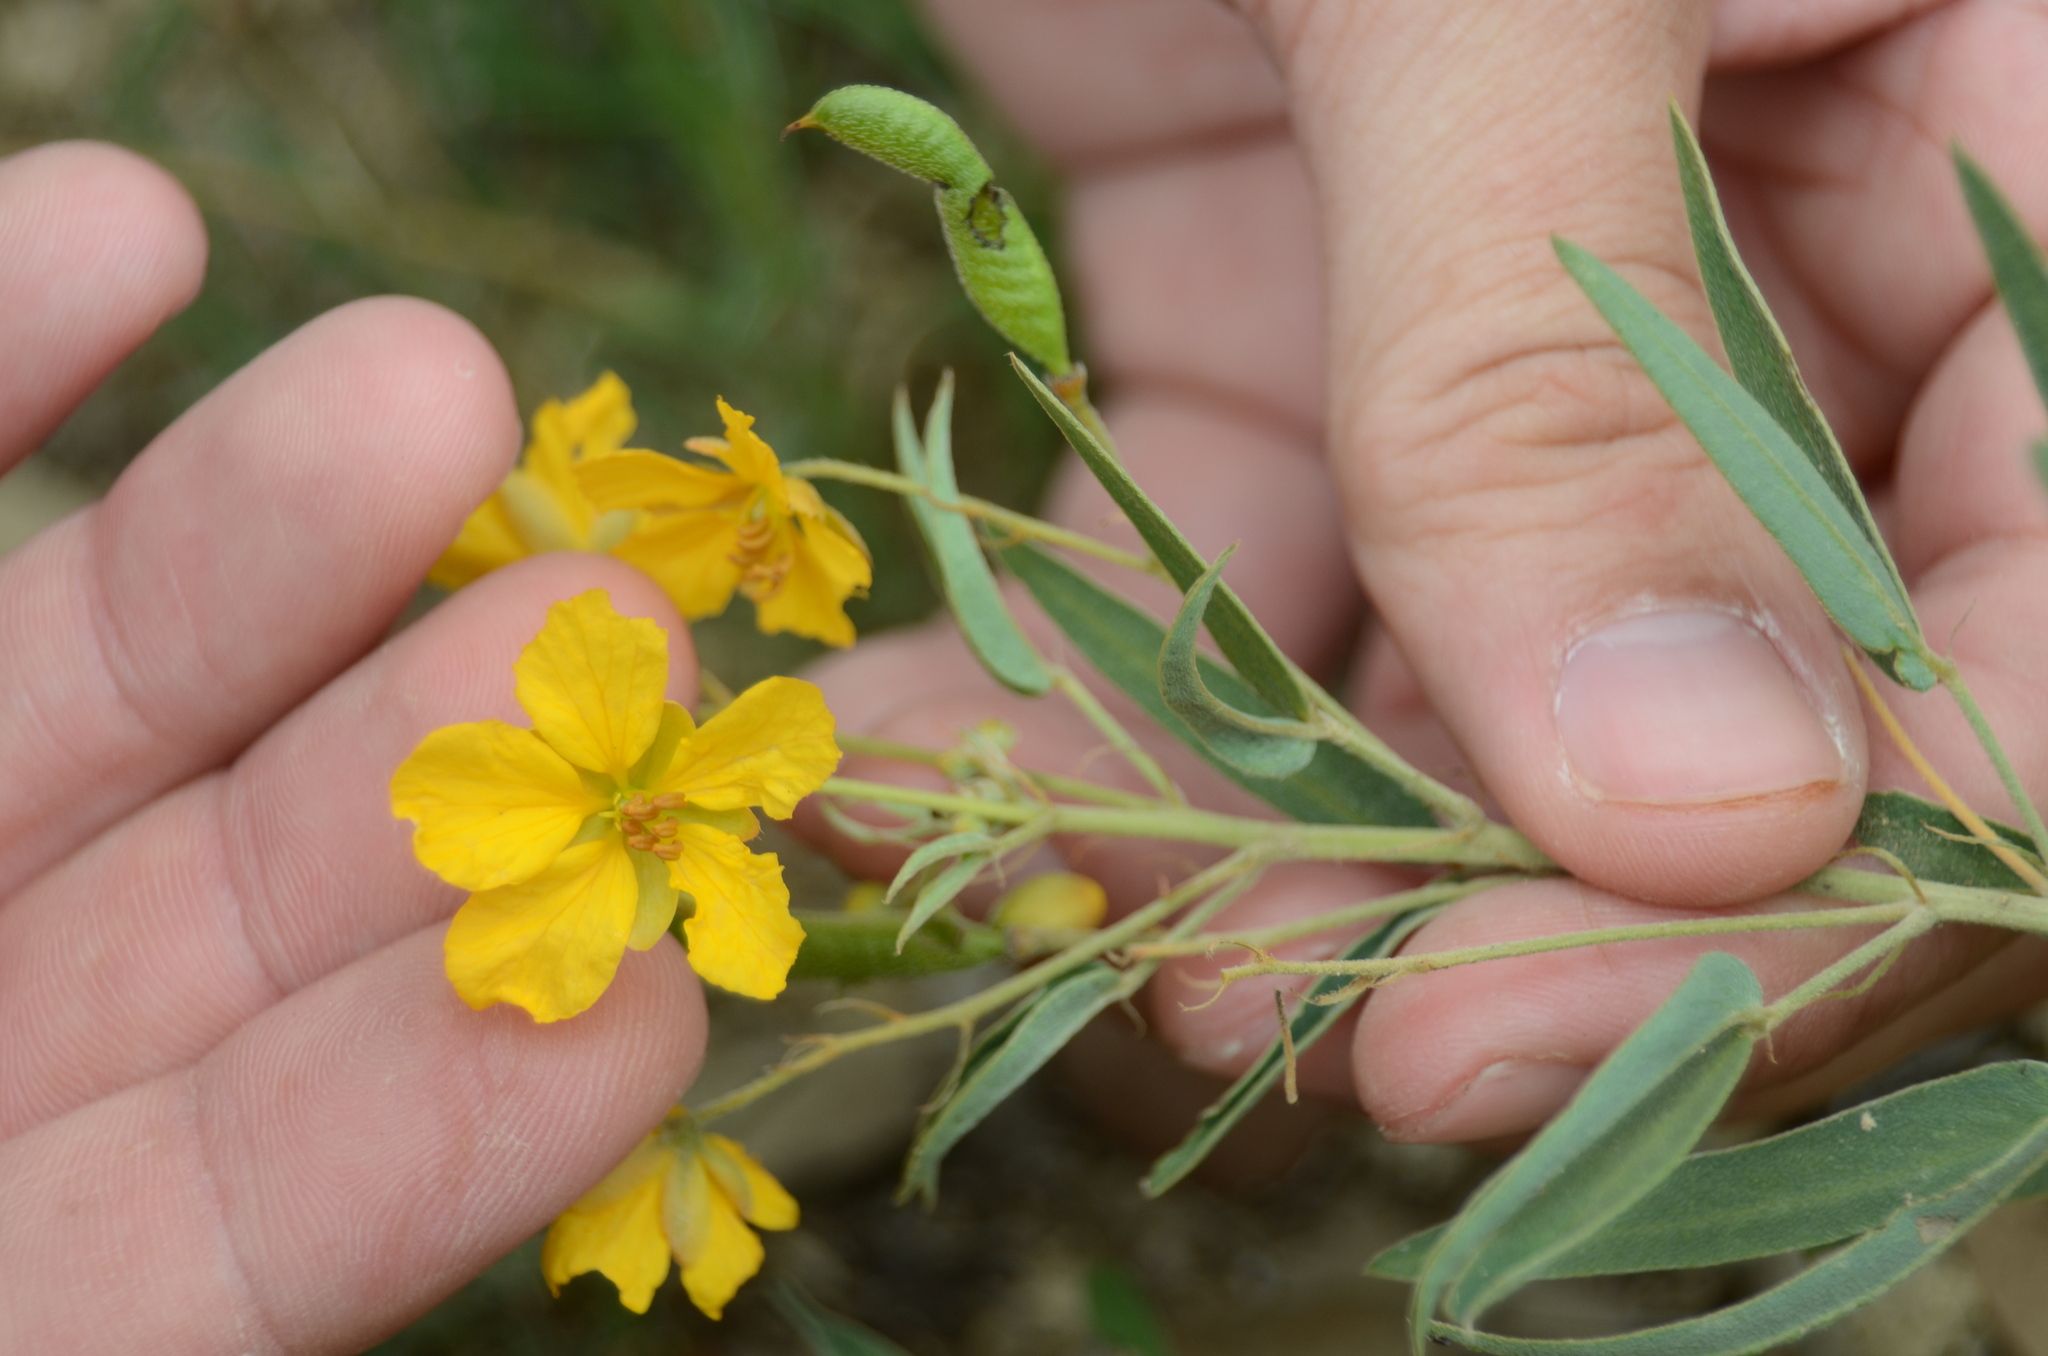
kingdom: Plantae
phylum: Tracheophyta
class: Magnoliopsida
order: Fabales
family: Fabaceae
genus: Senna
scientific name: Senna roemeriana
